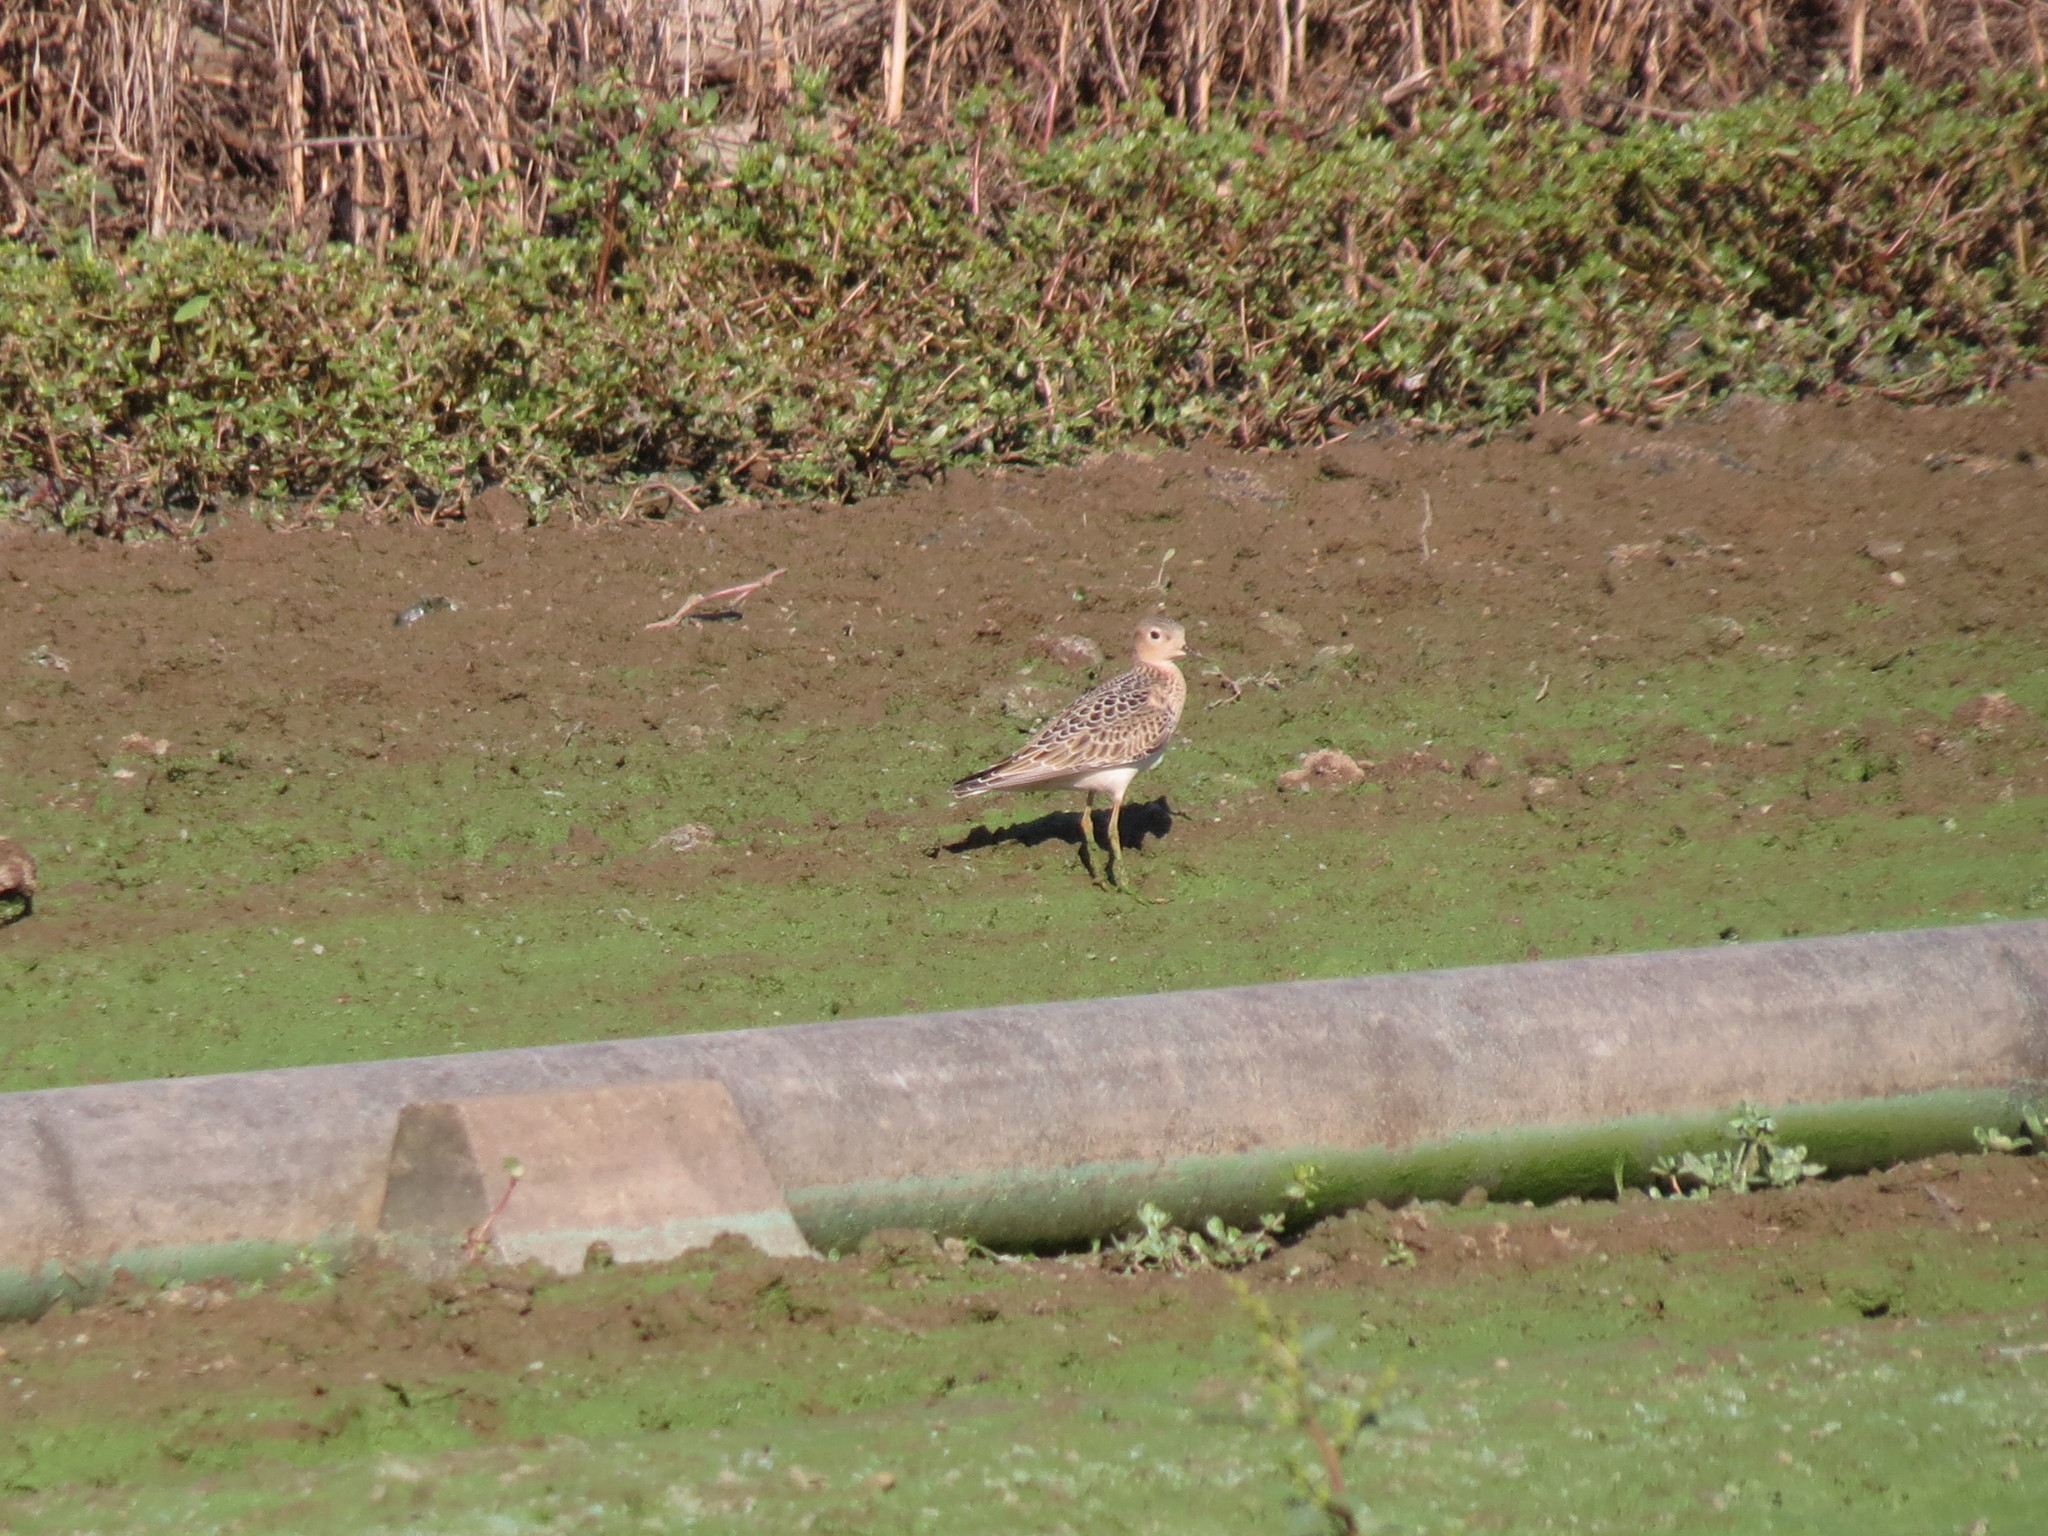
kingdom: Animalia
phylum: Chordata
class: Aves
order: Charadriiformes
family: Scolopacidae
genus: Calidris
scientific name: Calidris subruficollis
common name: Buff-breasted sandpiper
